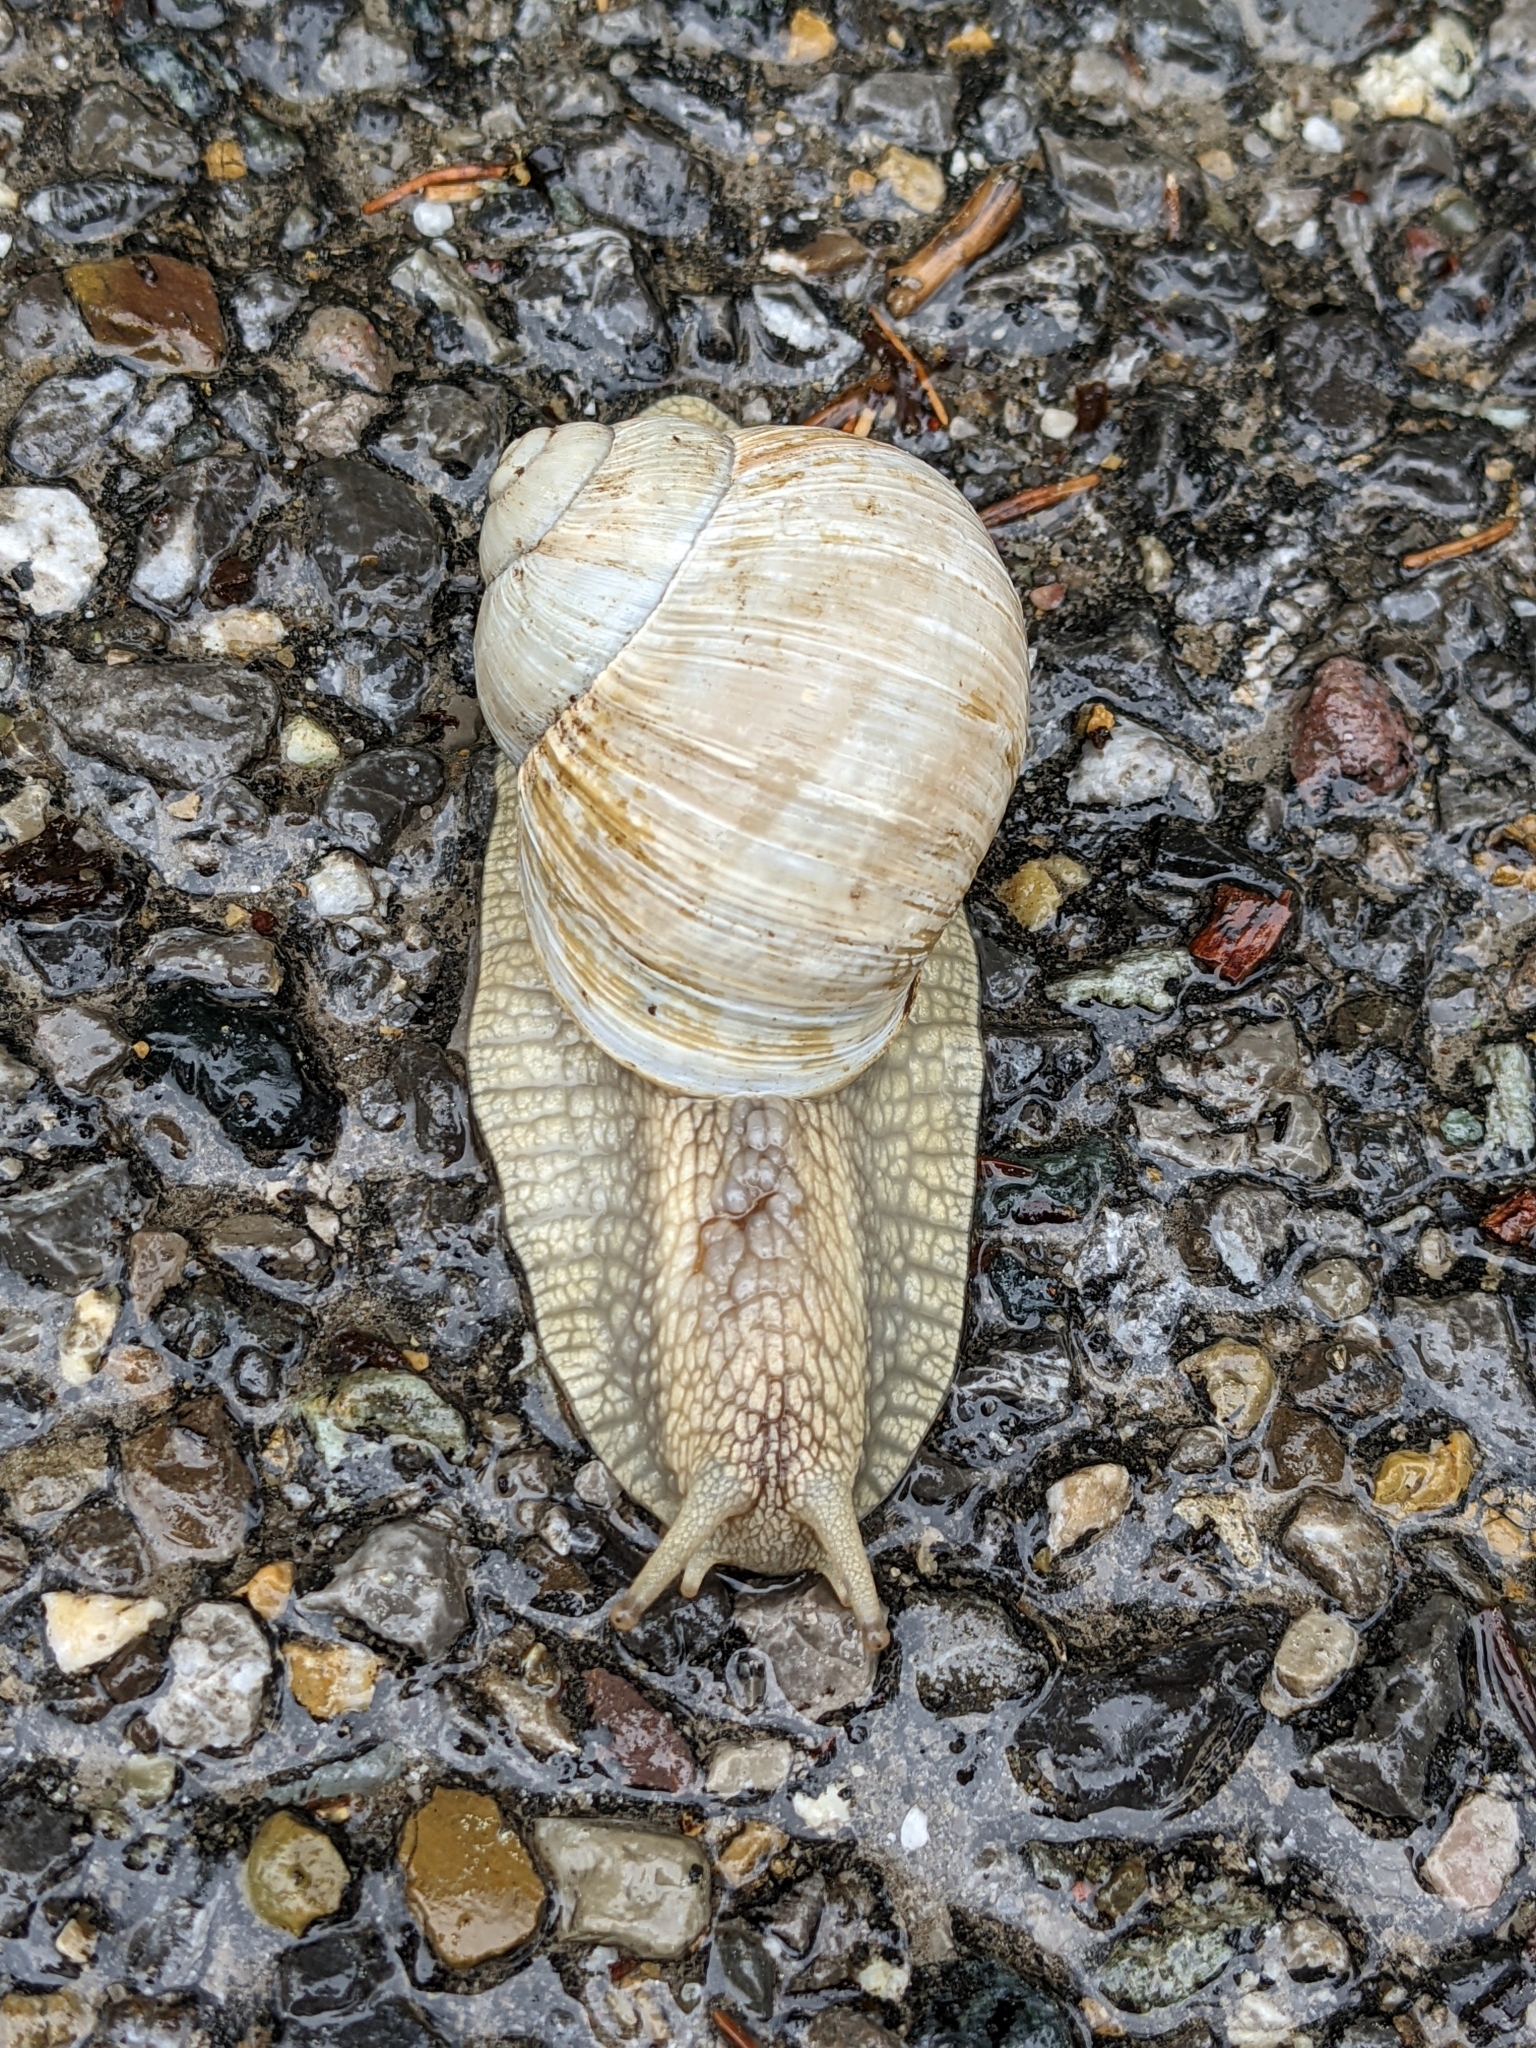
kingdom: Animalia
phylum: Mollusca
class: Gastropoda
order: Stylommatophora
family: Helicidae
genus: Helix
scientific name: Helix pomatia
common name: Roman snail
